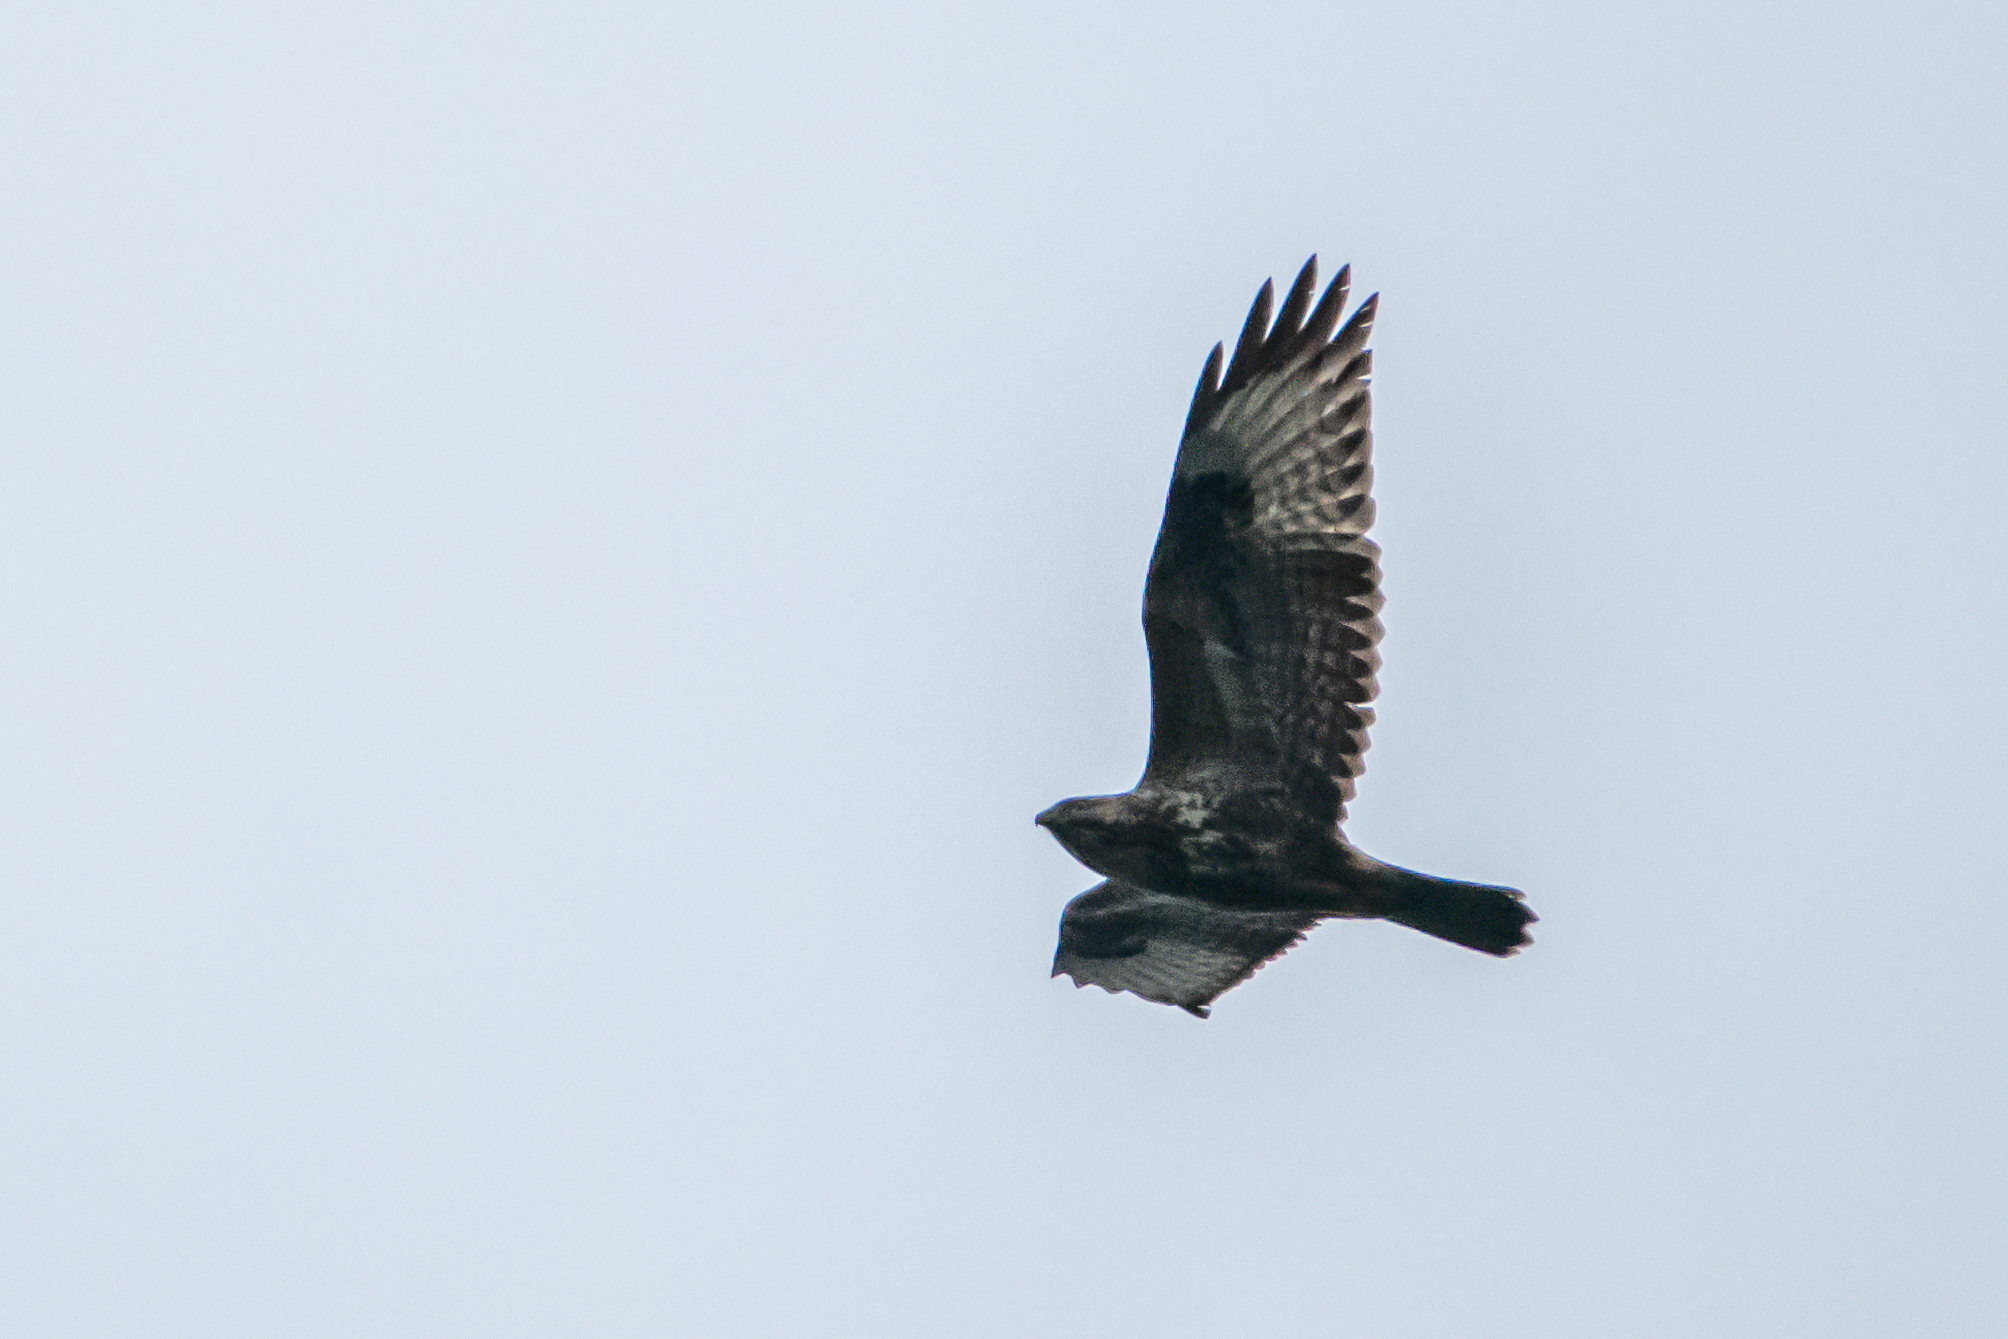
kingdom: Animalia
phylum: Chordata
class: Aves
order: Accipitriformes
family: Accipitridae
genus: Buteo
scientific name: Buteo buteo
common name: Common buzzard
